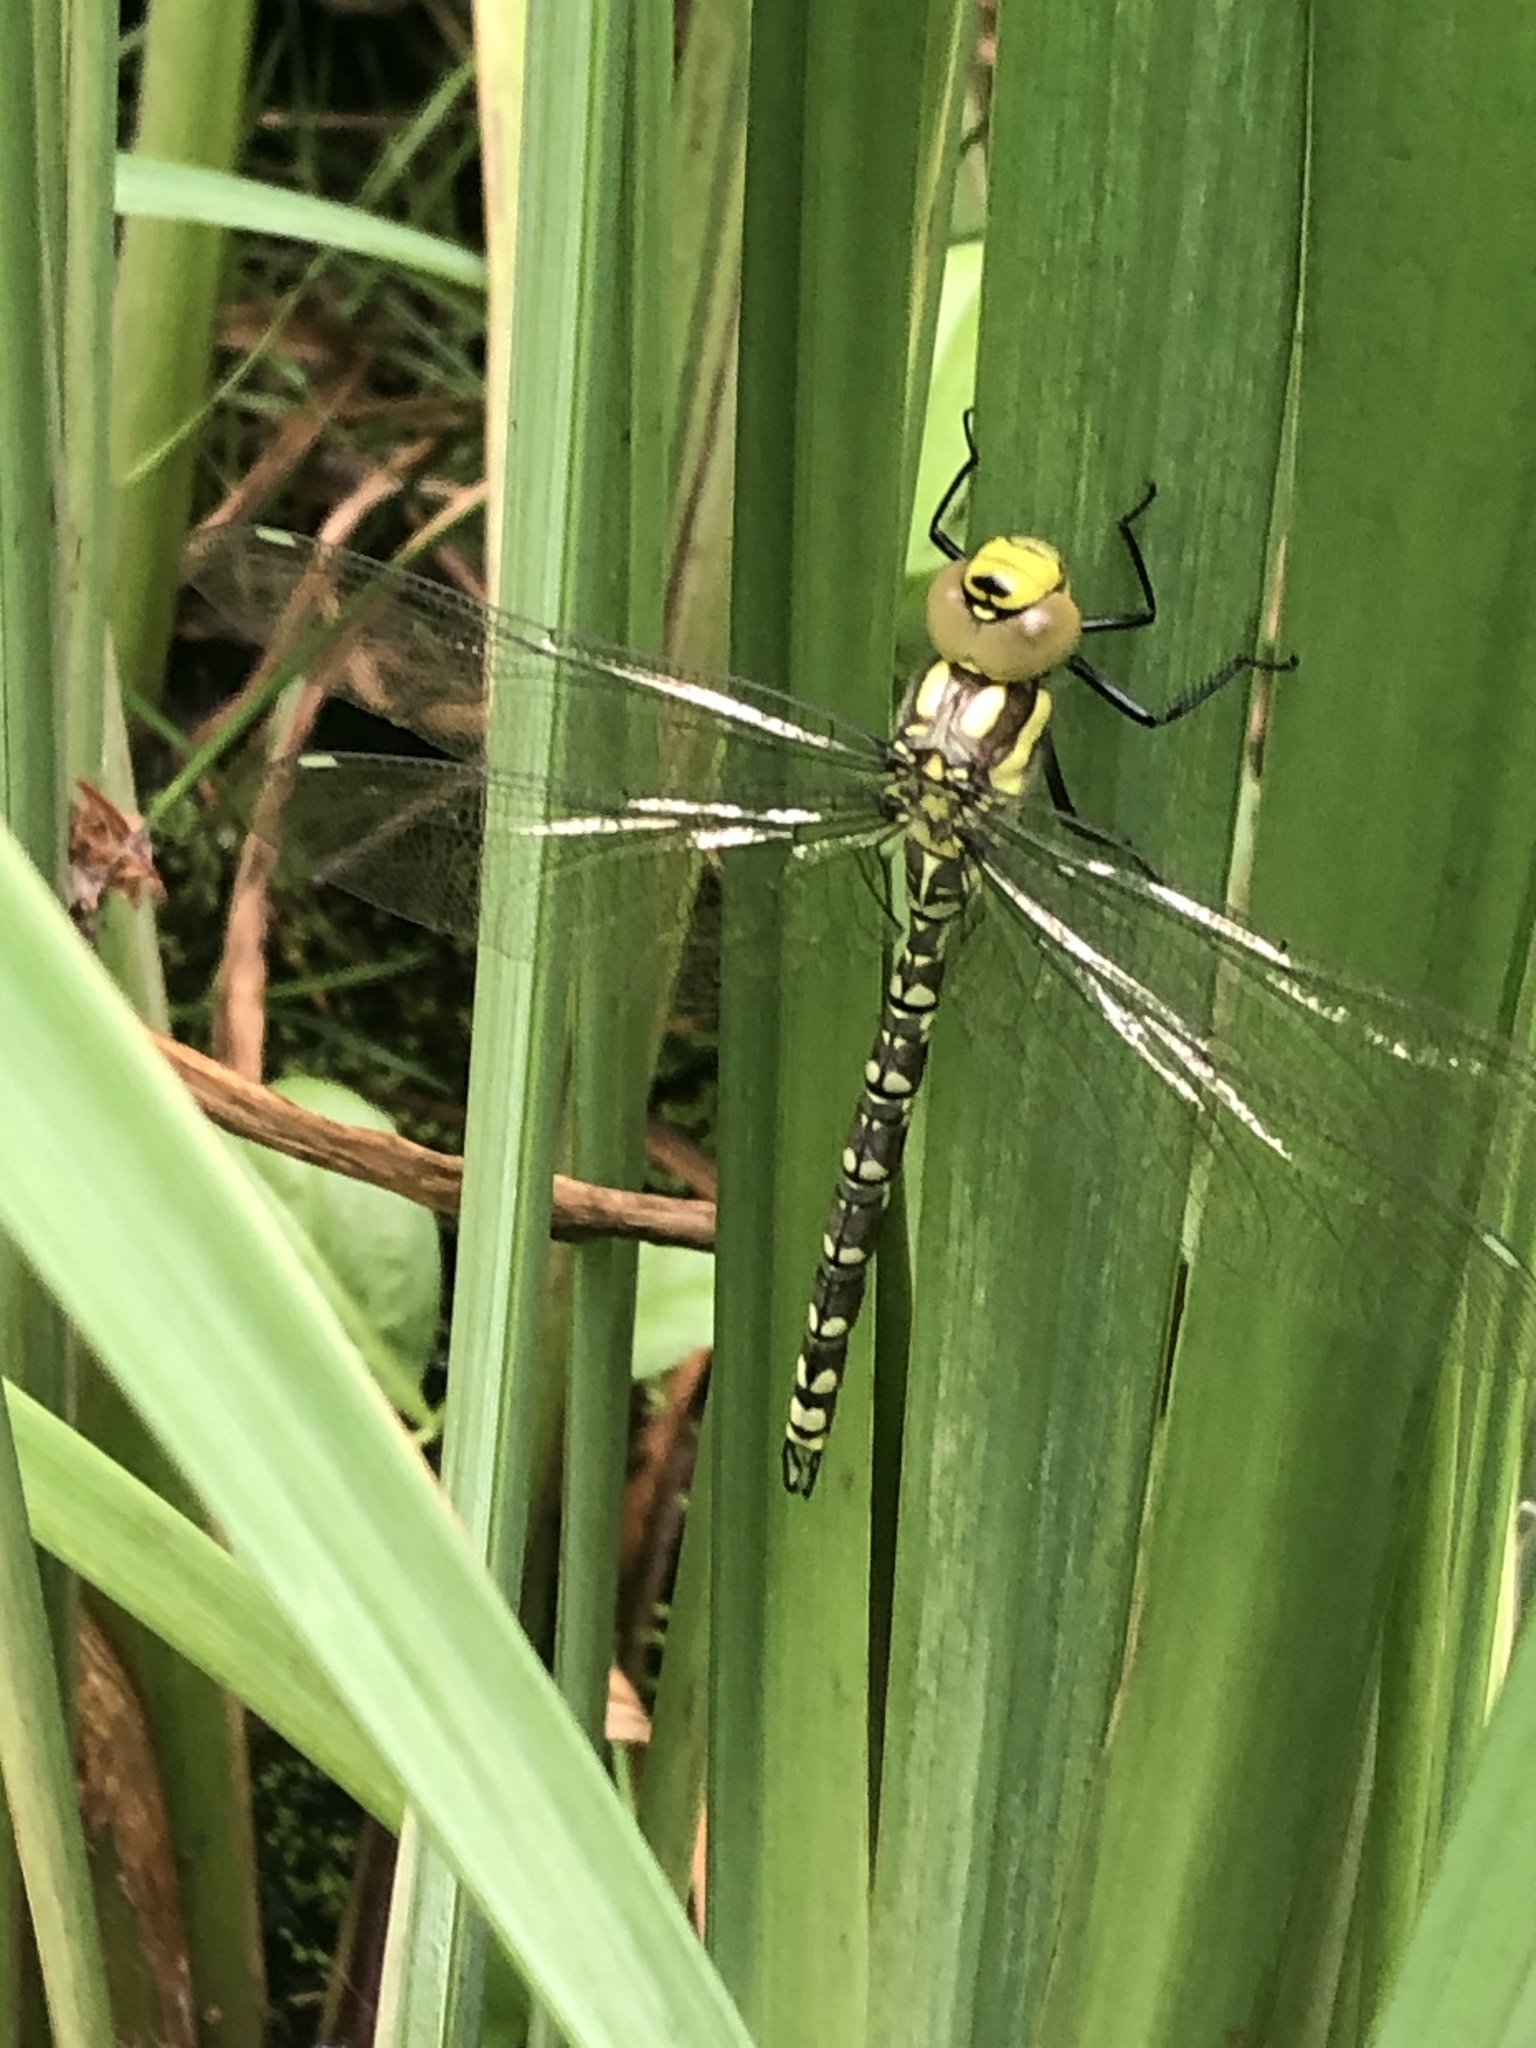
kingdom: Animalia
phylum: Arthropoda
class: Insecta
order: Odonata
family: Aeshnidae
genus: Aeshna
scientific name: Aeshna cyanea
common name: Southern hawker
